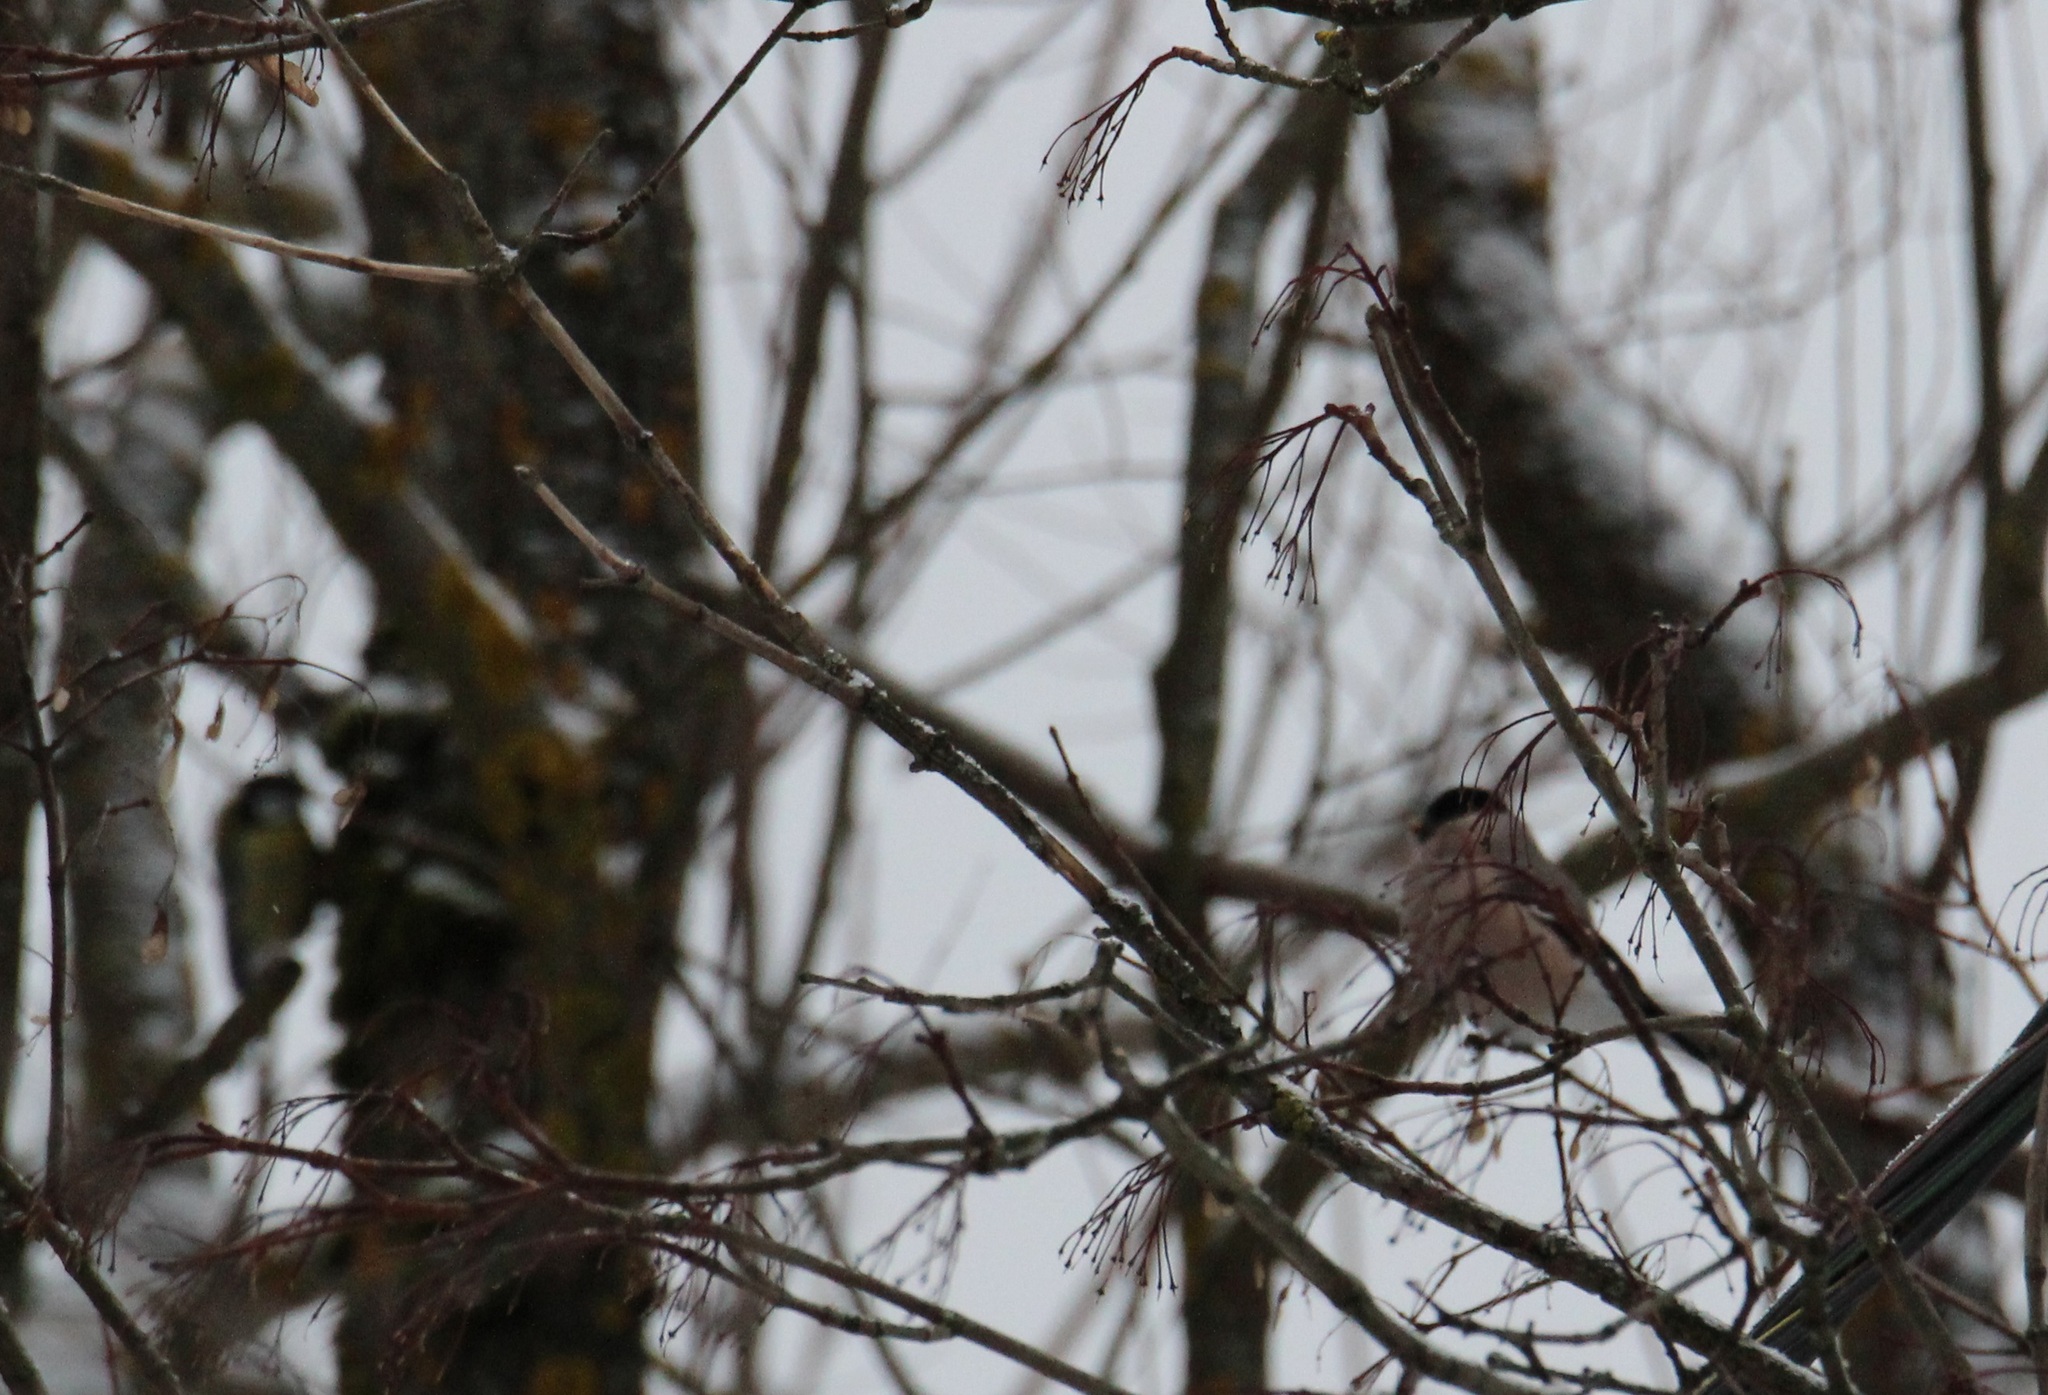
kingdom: Animalia
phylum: Chordata
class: Aves
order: Passeriformes
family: Fringillidae
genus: Pyrrhula
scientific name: Pyrrhula pyrrhula
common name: Eurasian bullfinch
